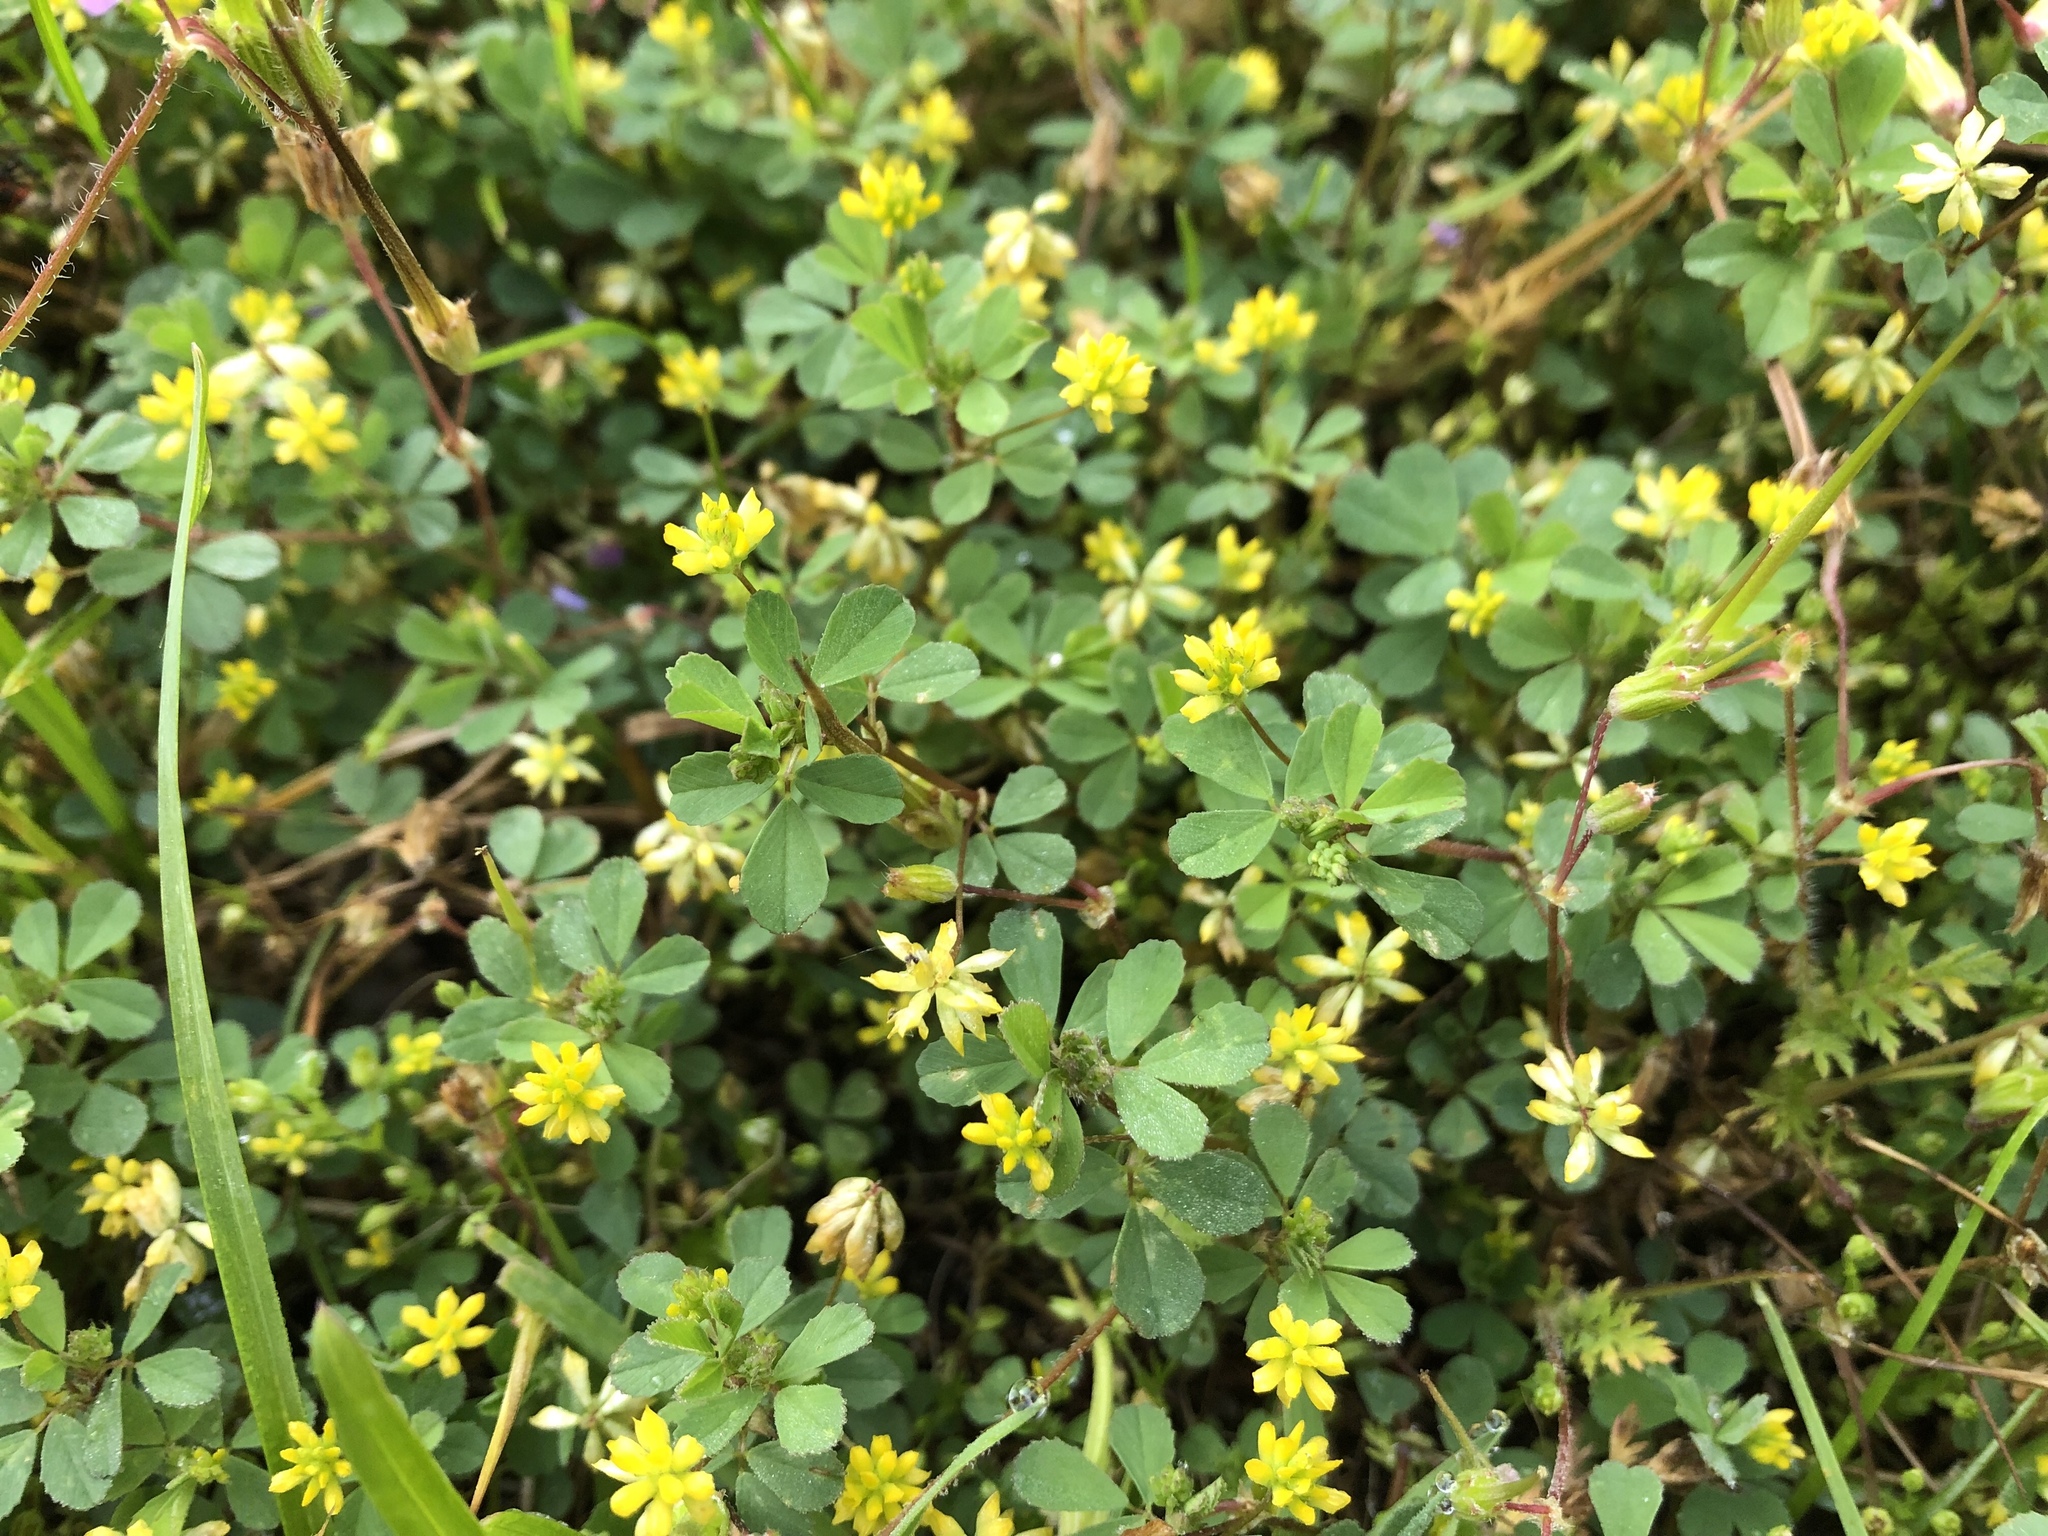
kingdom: Plantae
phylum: Tracheophyta
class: Magnoliopsida
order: Fabales
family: Fabaceae
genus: Trifolium
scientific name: Trifolium dubium
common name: Suckling clover
